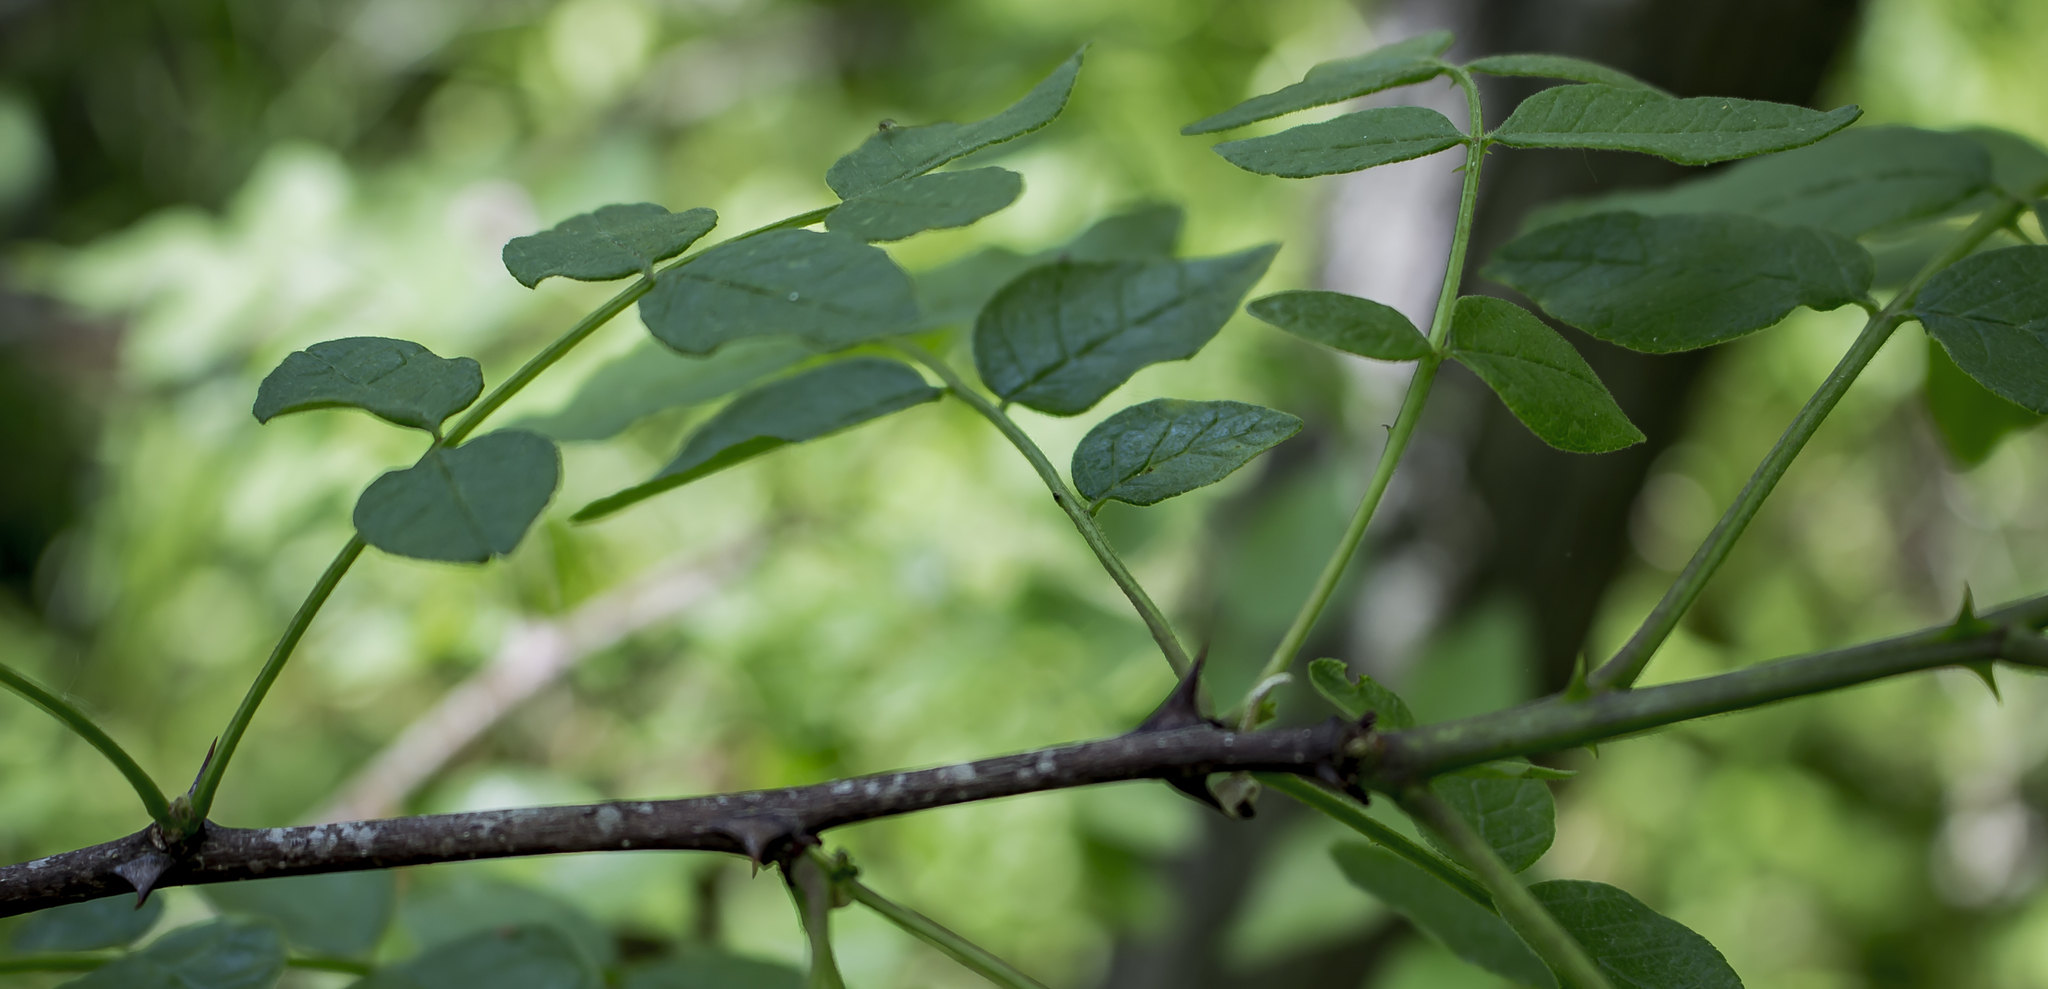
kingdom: Plantae
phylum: Tracheophyta
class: Magnoliopsida
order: Sapindales
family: Rutaceae
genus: Zanthoxylum
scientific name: Zanthoxylum americanum
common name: Northern prickly-ash
